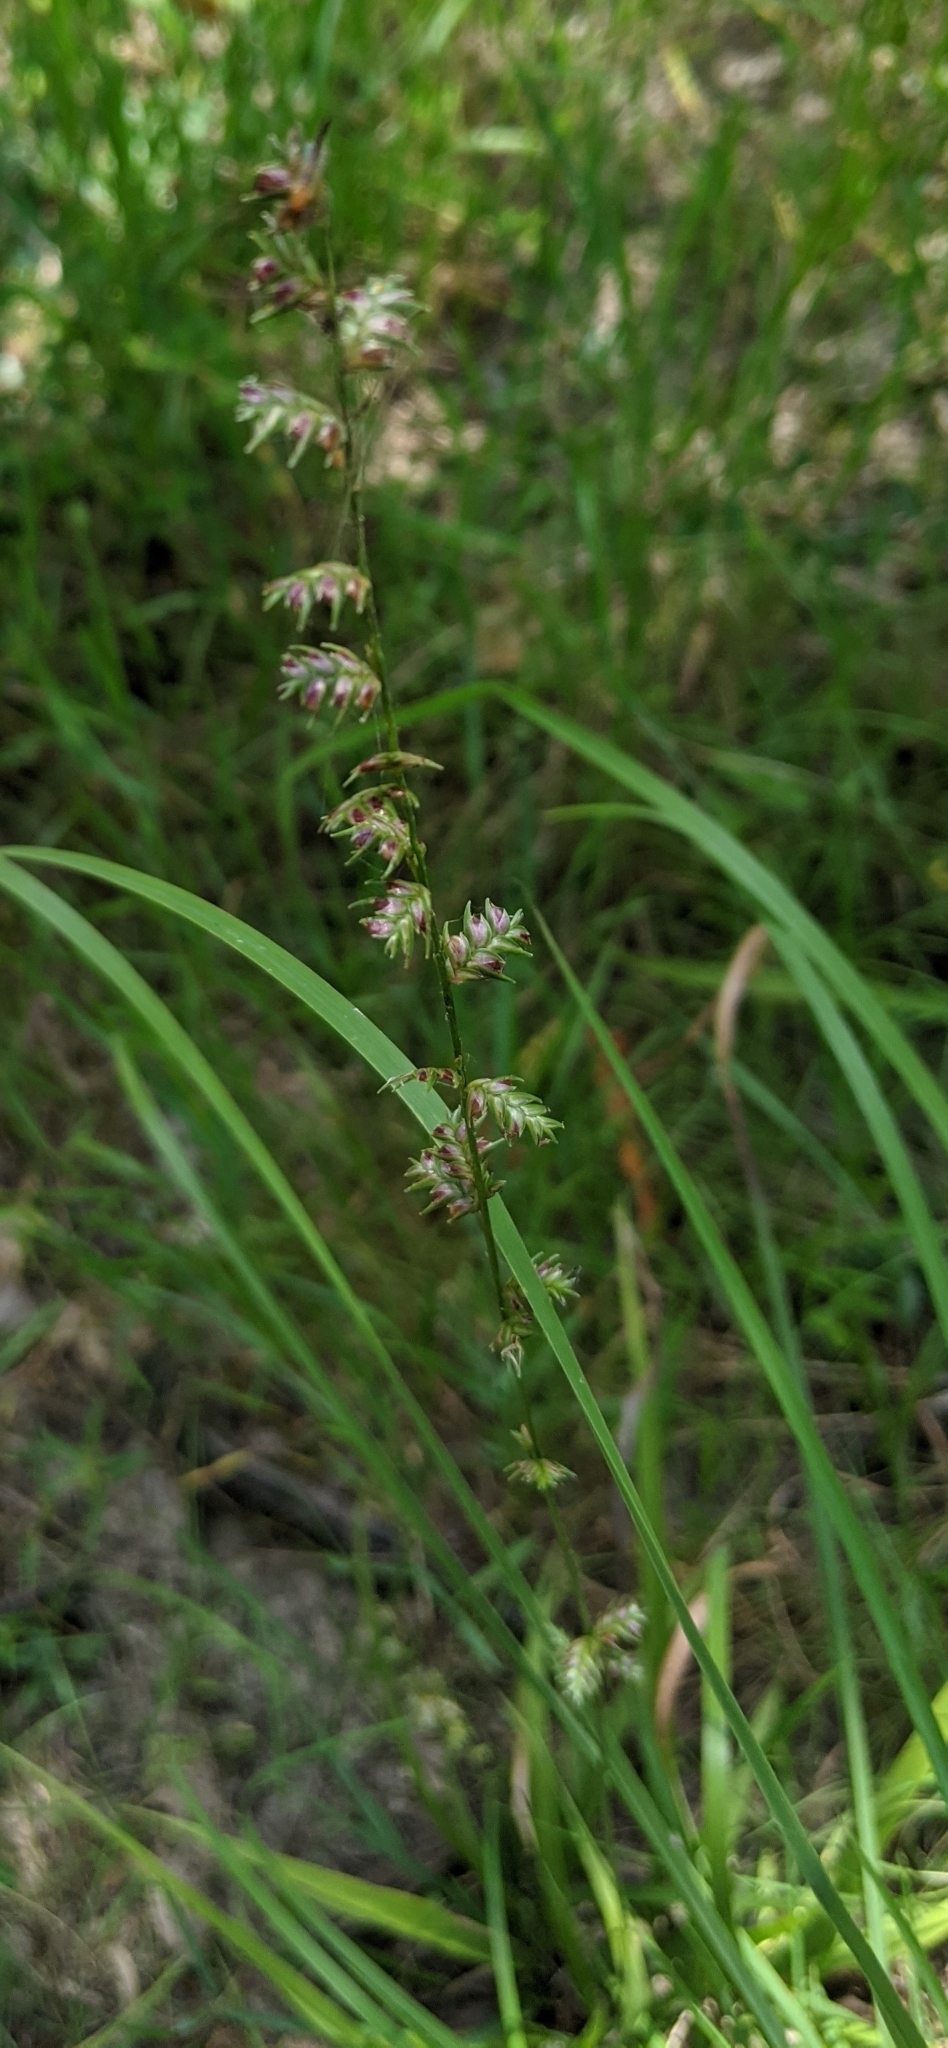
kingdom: Plantae
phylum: Tracheophyta
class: Liliopsida
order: Poales
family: Poaceae
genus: Chasmanthium
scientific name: Chasmanthium laxum
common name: Slender chasmanthium
